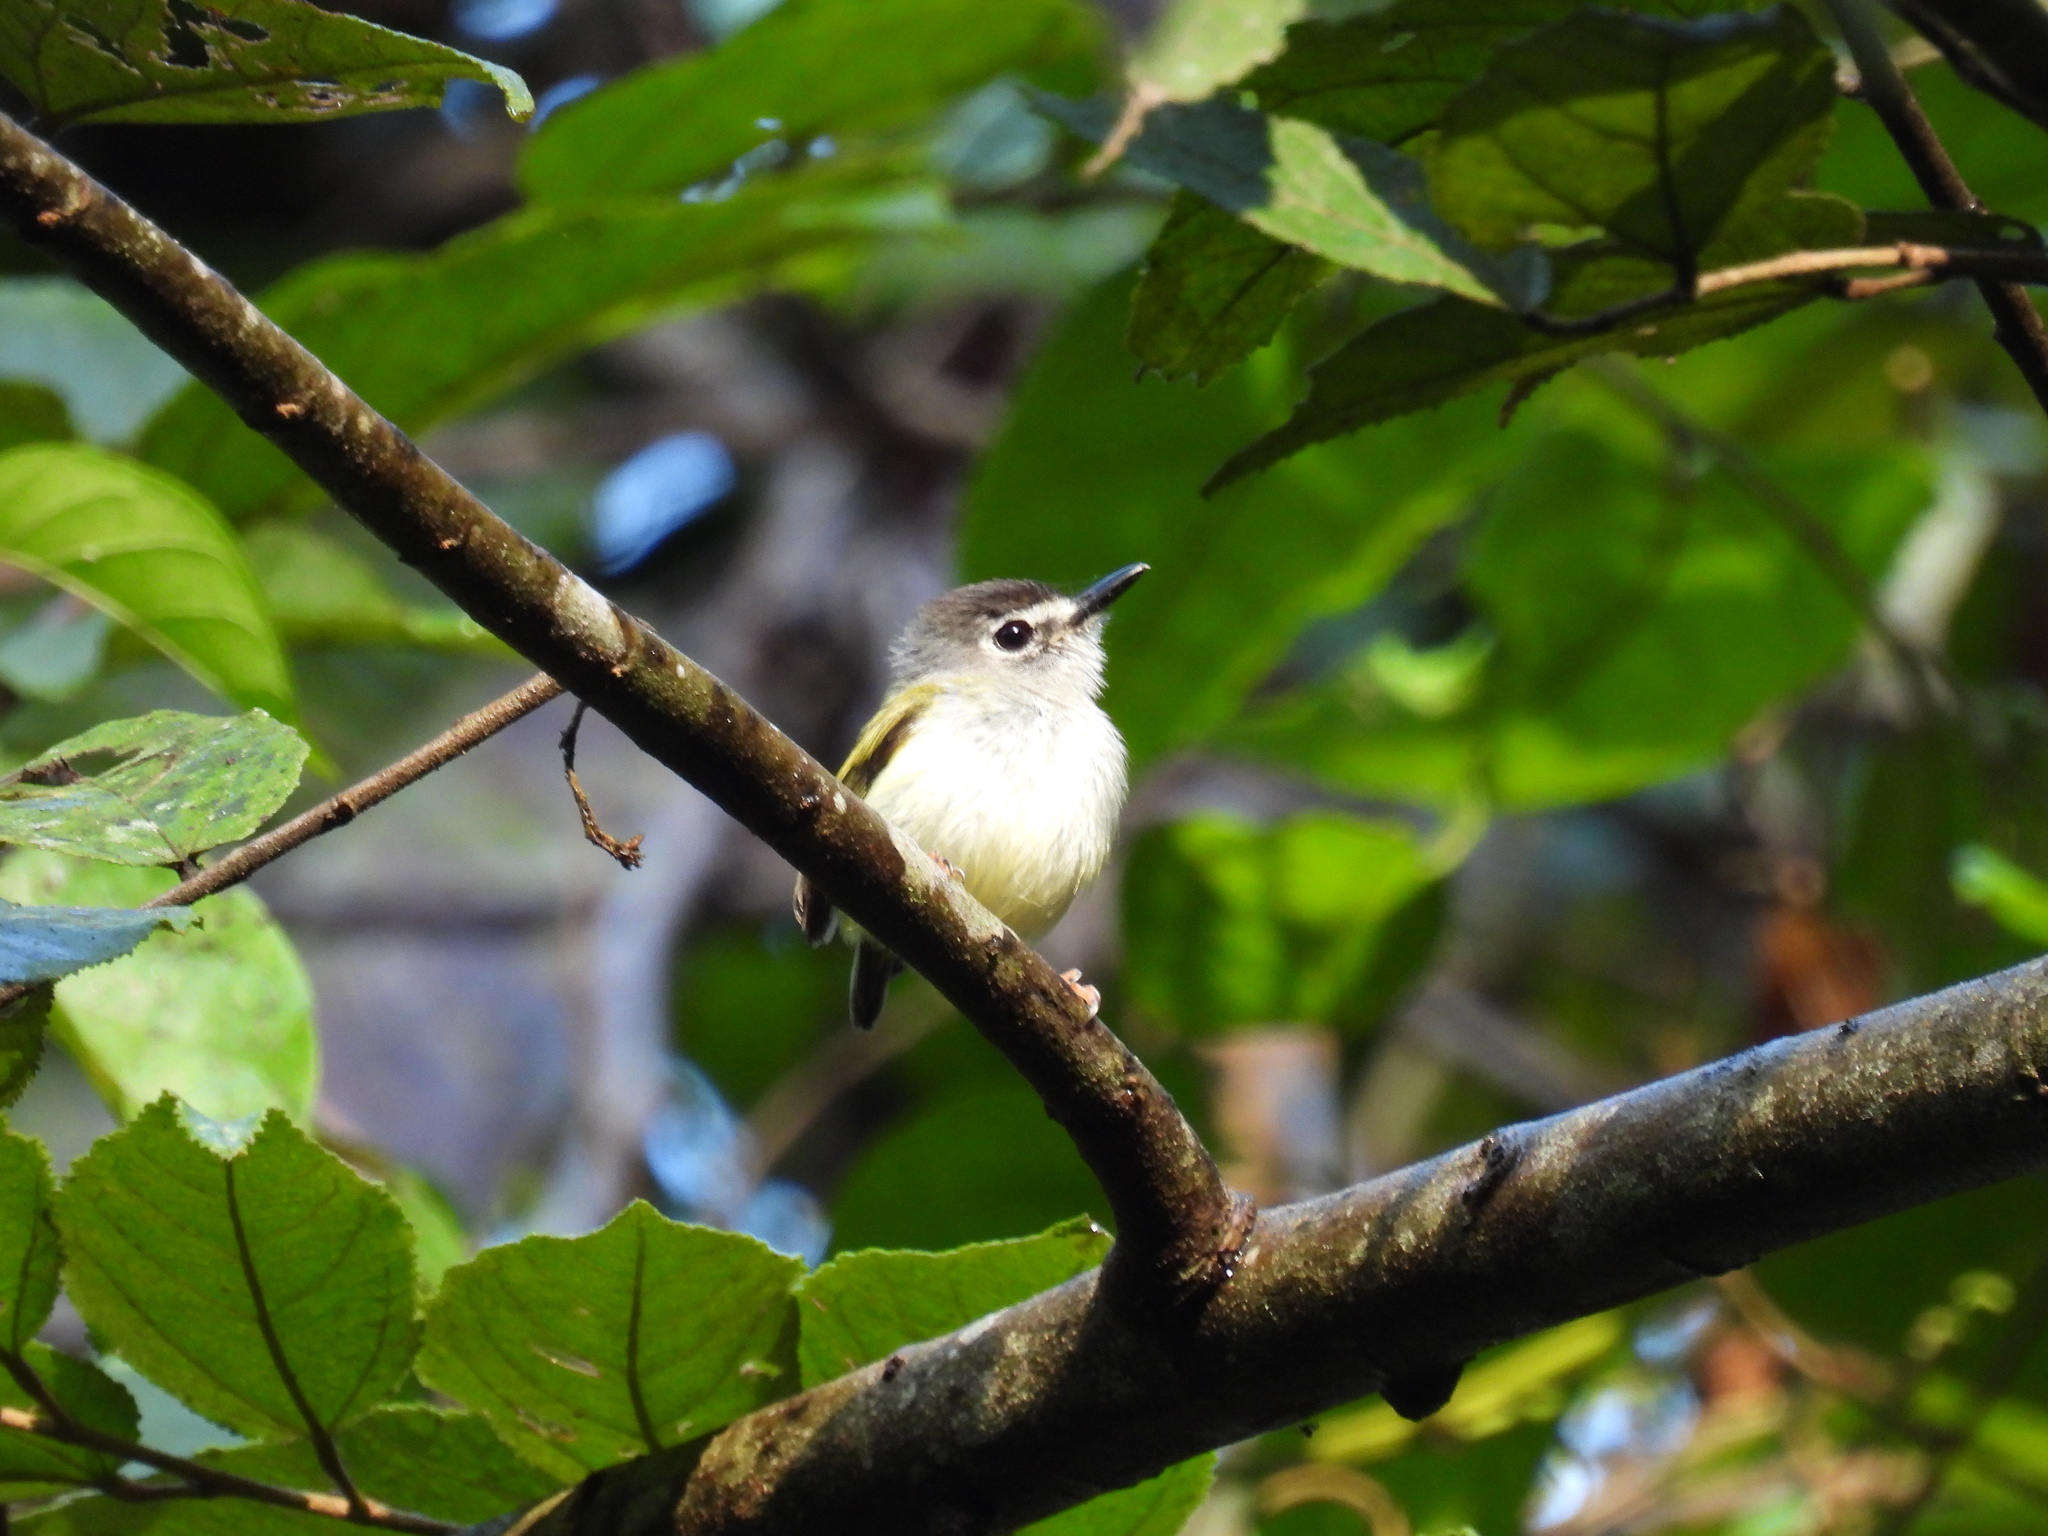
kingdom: Animalia
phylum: Chordata
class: Aves
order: Passeriformes
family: Tyrannidae
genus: Myiornis
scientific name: Myiornis atricapillus
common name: Black-capped pygmy-tyrant
